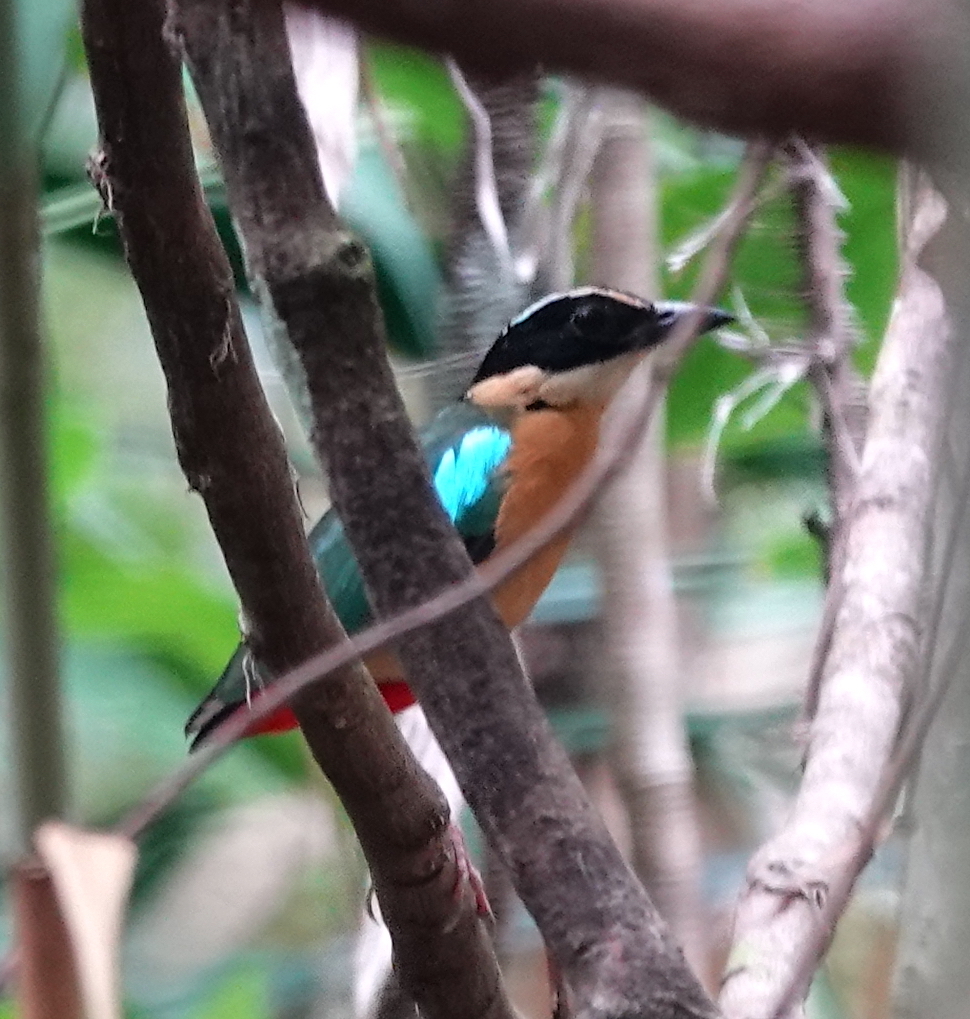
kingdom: Animalia
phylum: Chordata
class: Aves
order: Passeriformes
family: Pittidae
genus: Pitta
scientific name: Pitta vigorsii
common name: Banda sea pitta
